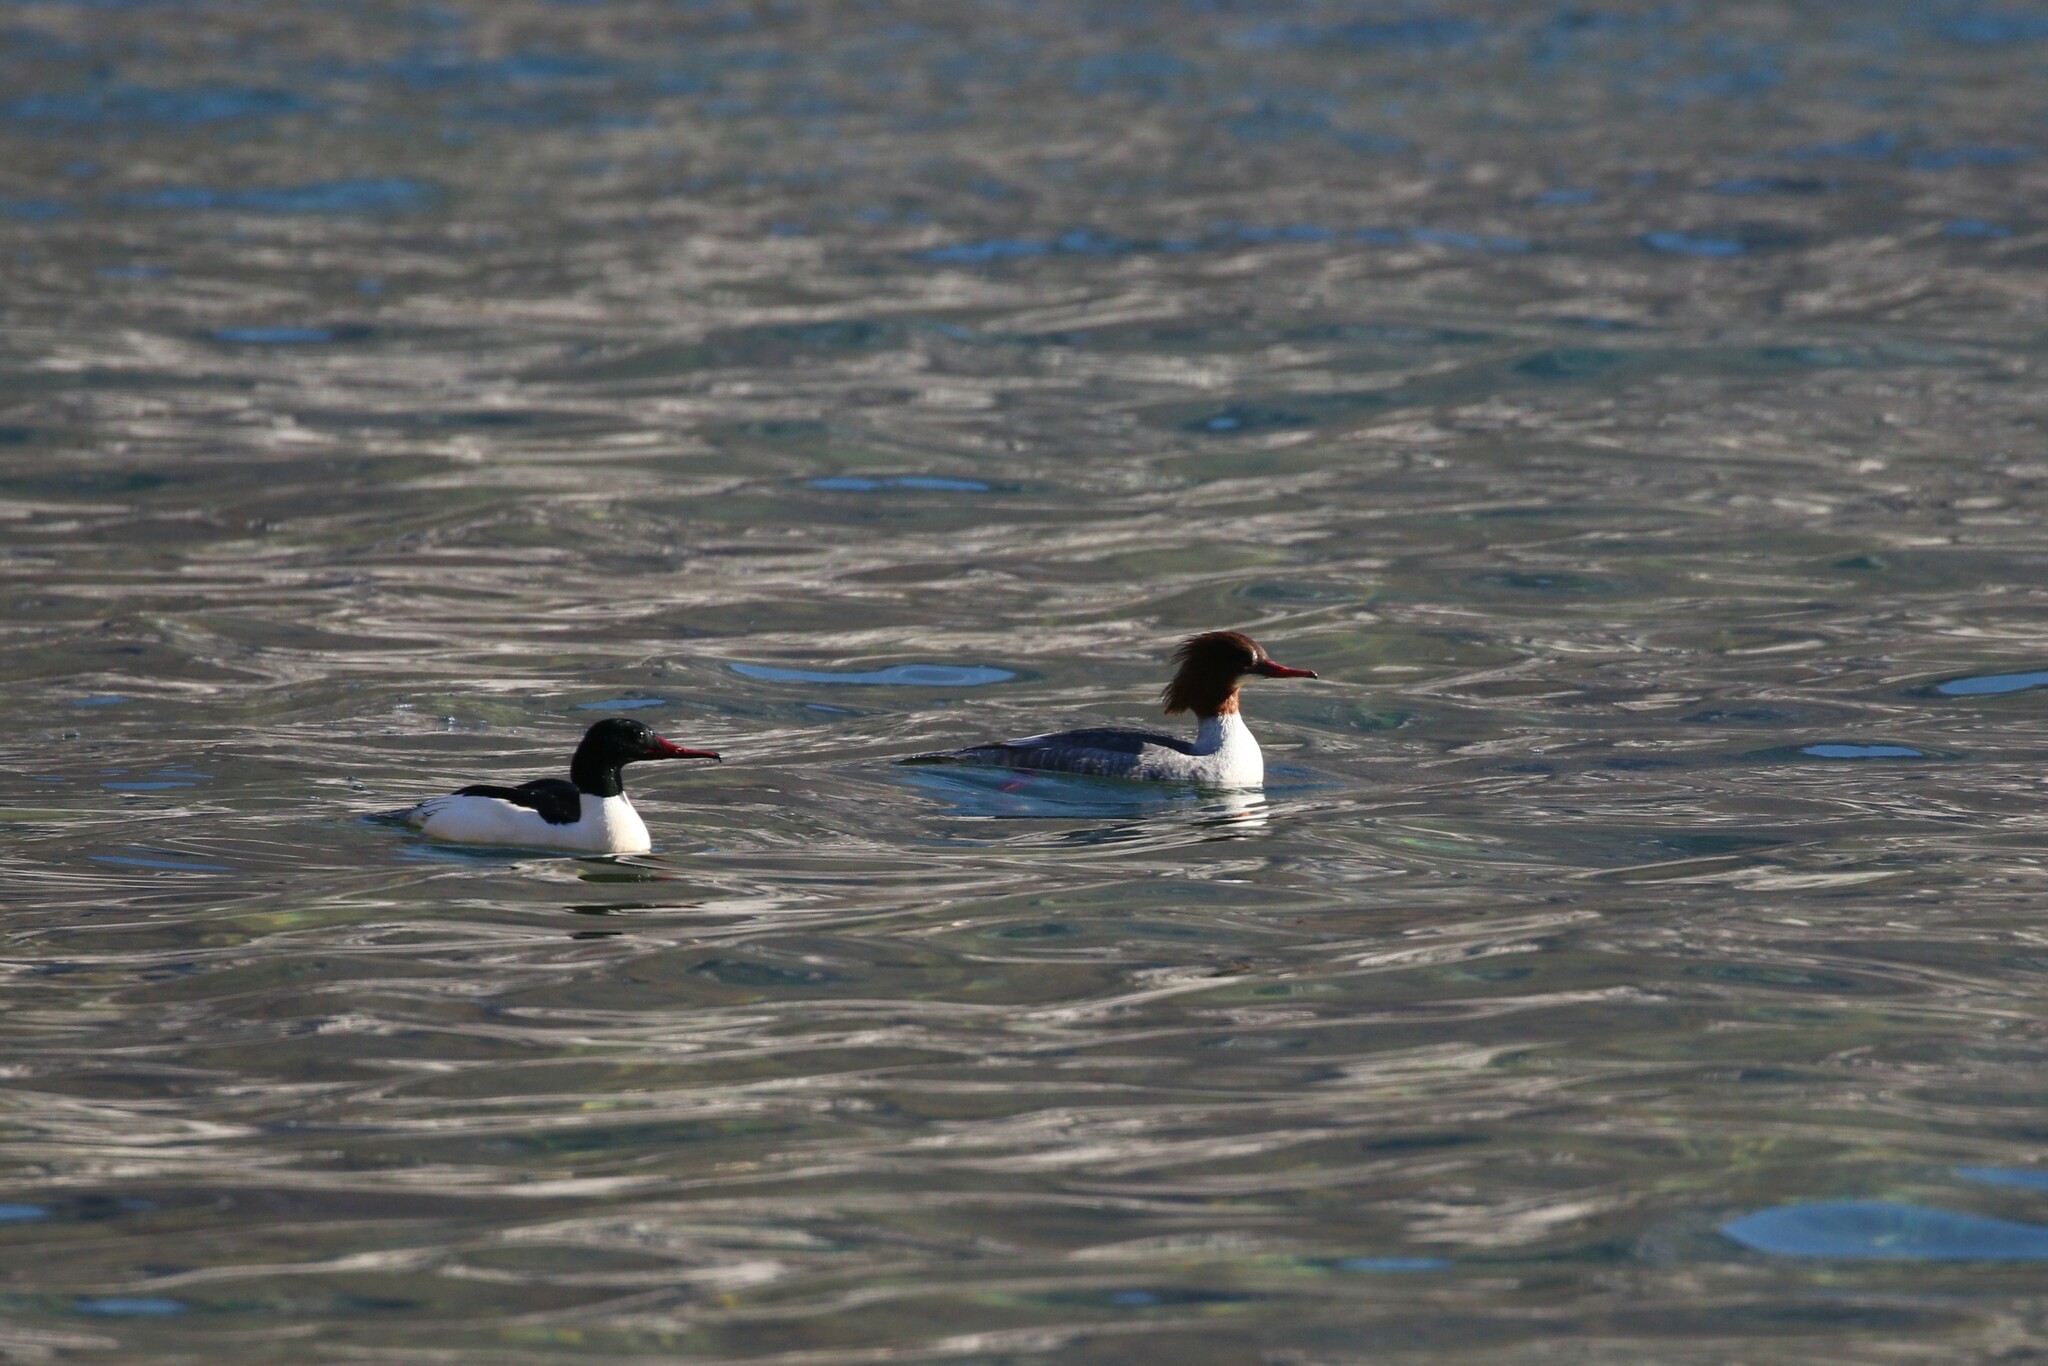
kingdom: Animalia
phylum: Chordata
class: Aves
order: Anseriformes
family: Anatidae
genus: Mergus
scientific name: Mergus merganser
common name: Common merganser
